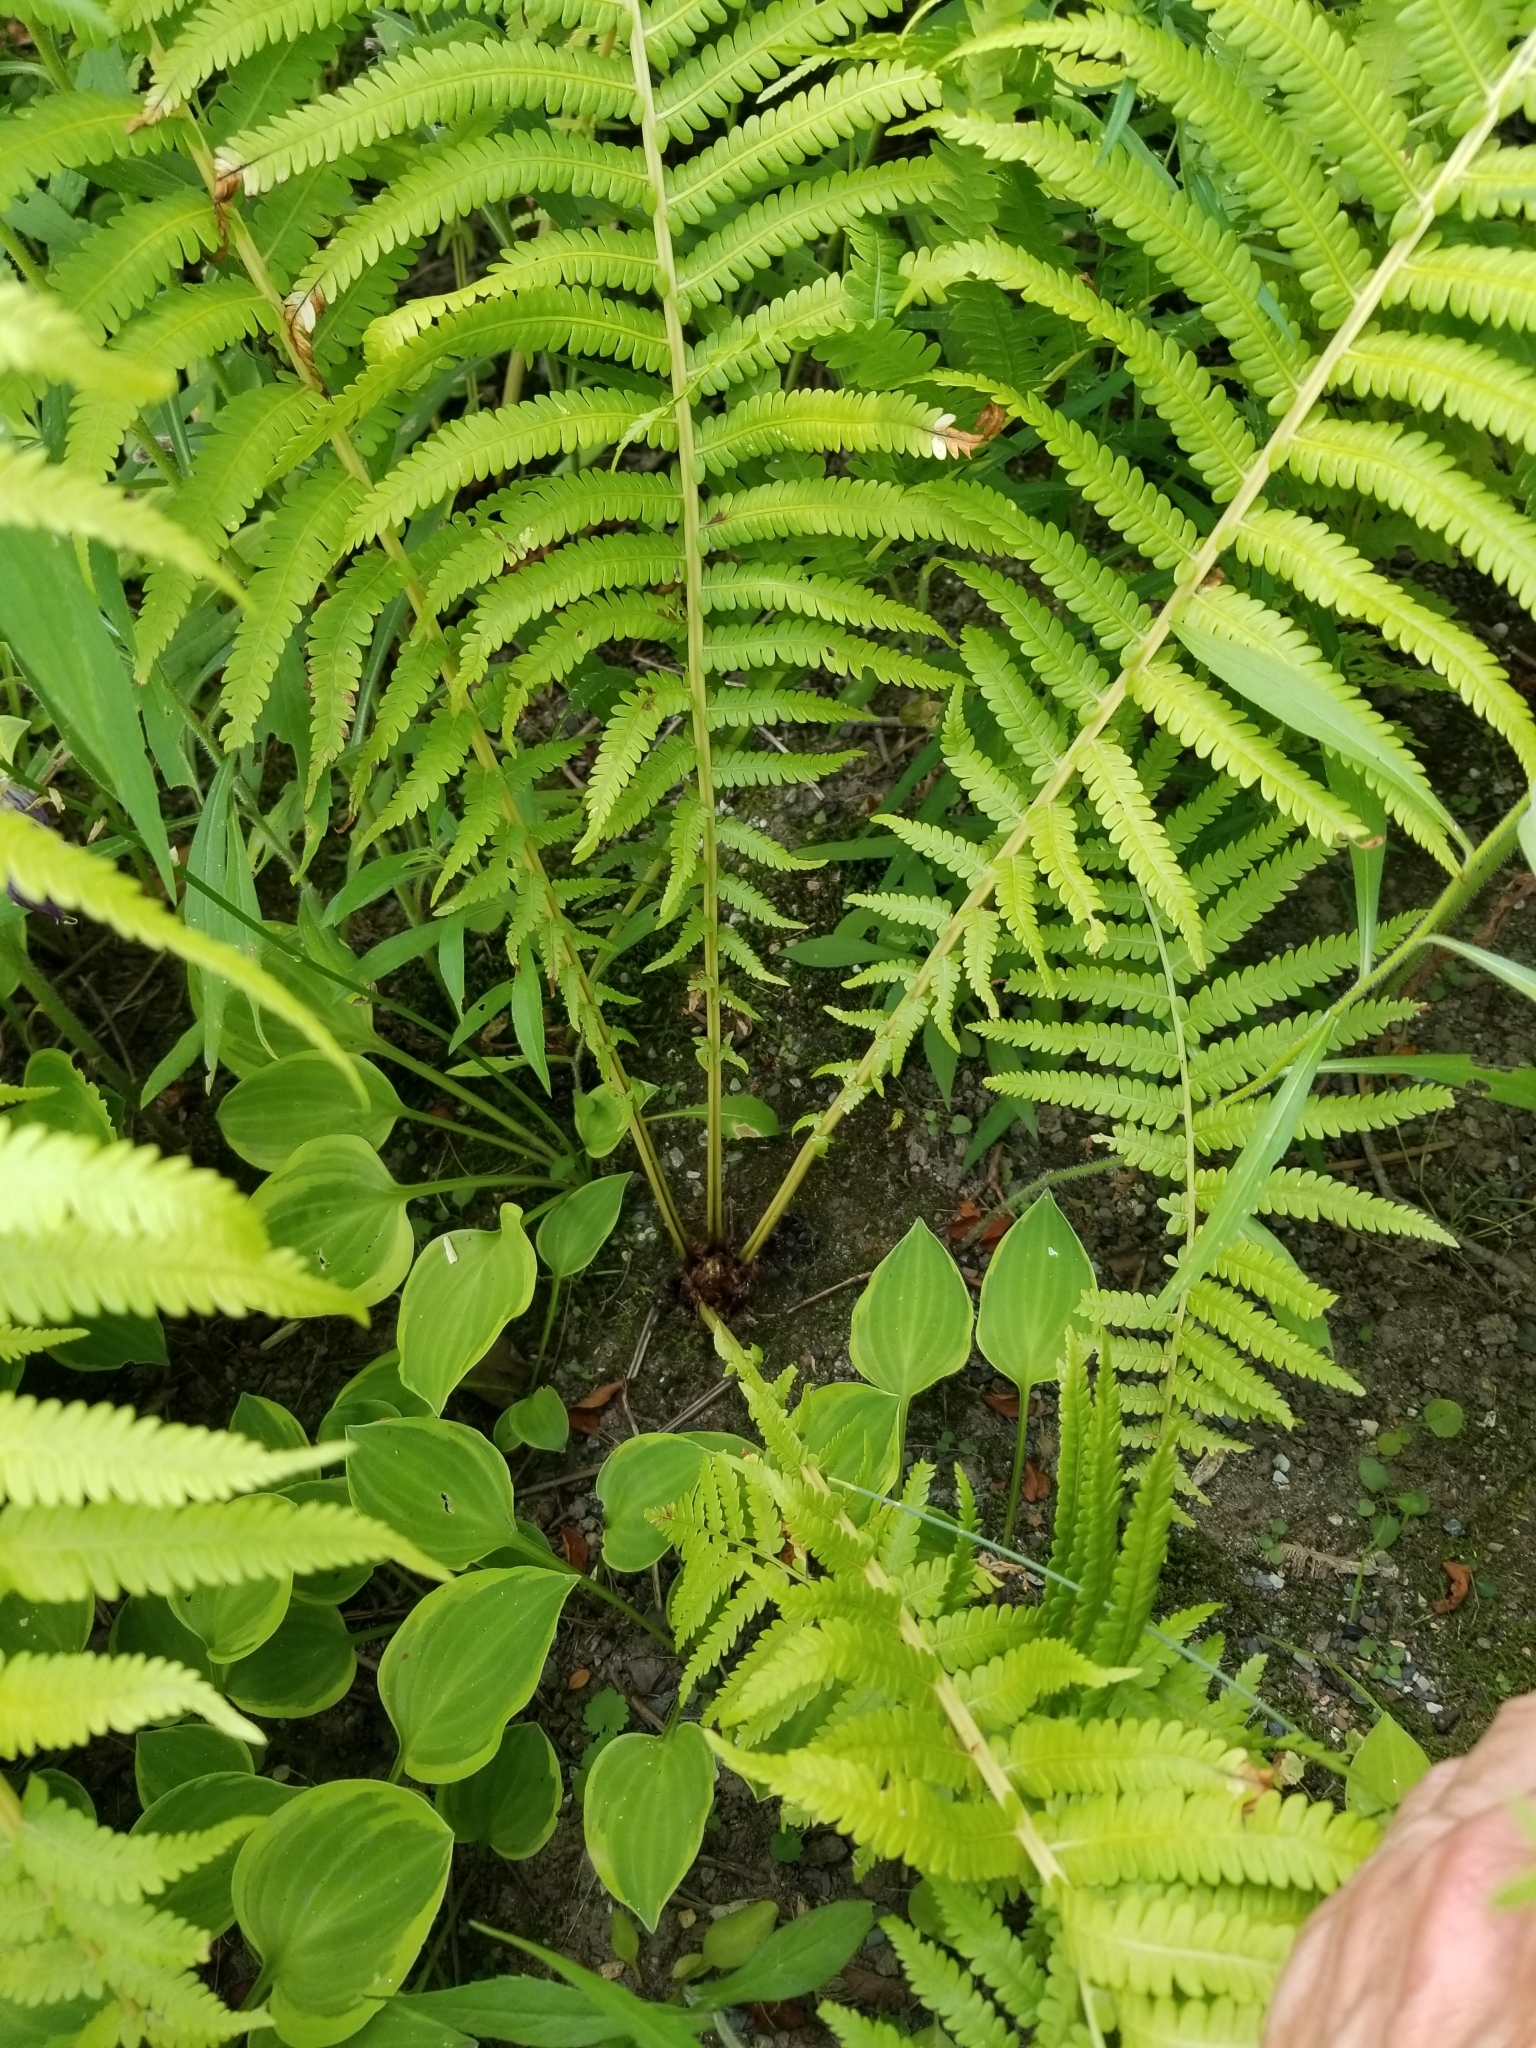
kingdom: Plantae
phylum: Tracheophyta
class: Polypodiopsida
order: Polypodiales
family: Onocleaceae
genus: Matteuccia
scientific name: Matteuccia struthiopteris
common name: Ostrich fern
